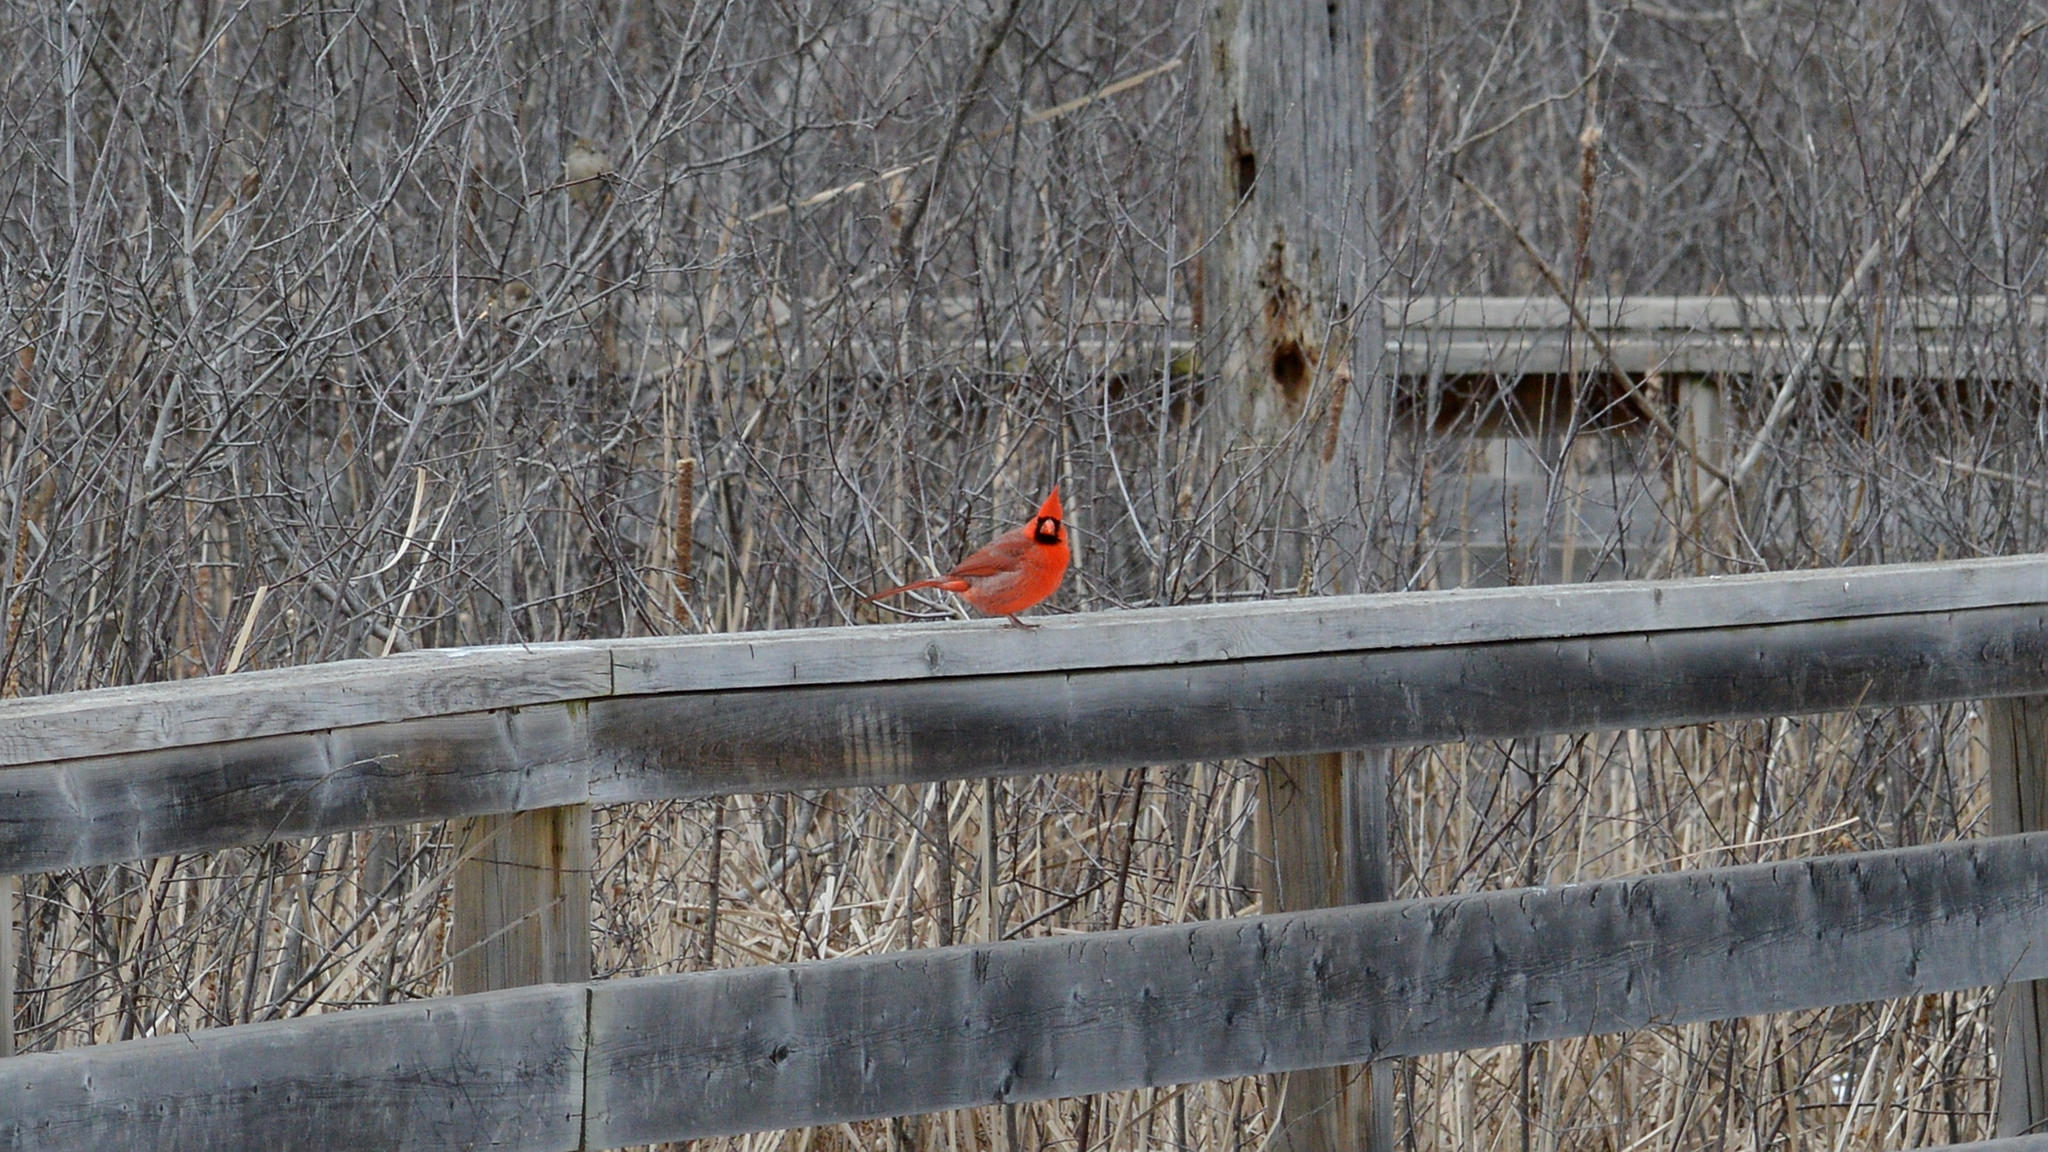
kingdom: Animalia
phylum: Chordata
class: Aves
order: Passeriformes
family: Cardinalidae
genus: Cardinalis
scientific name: Cardinalis cardinalis
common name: Northern cardinal
